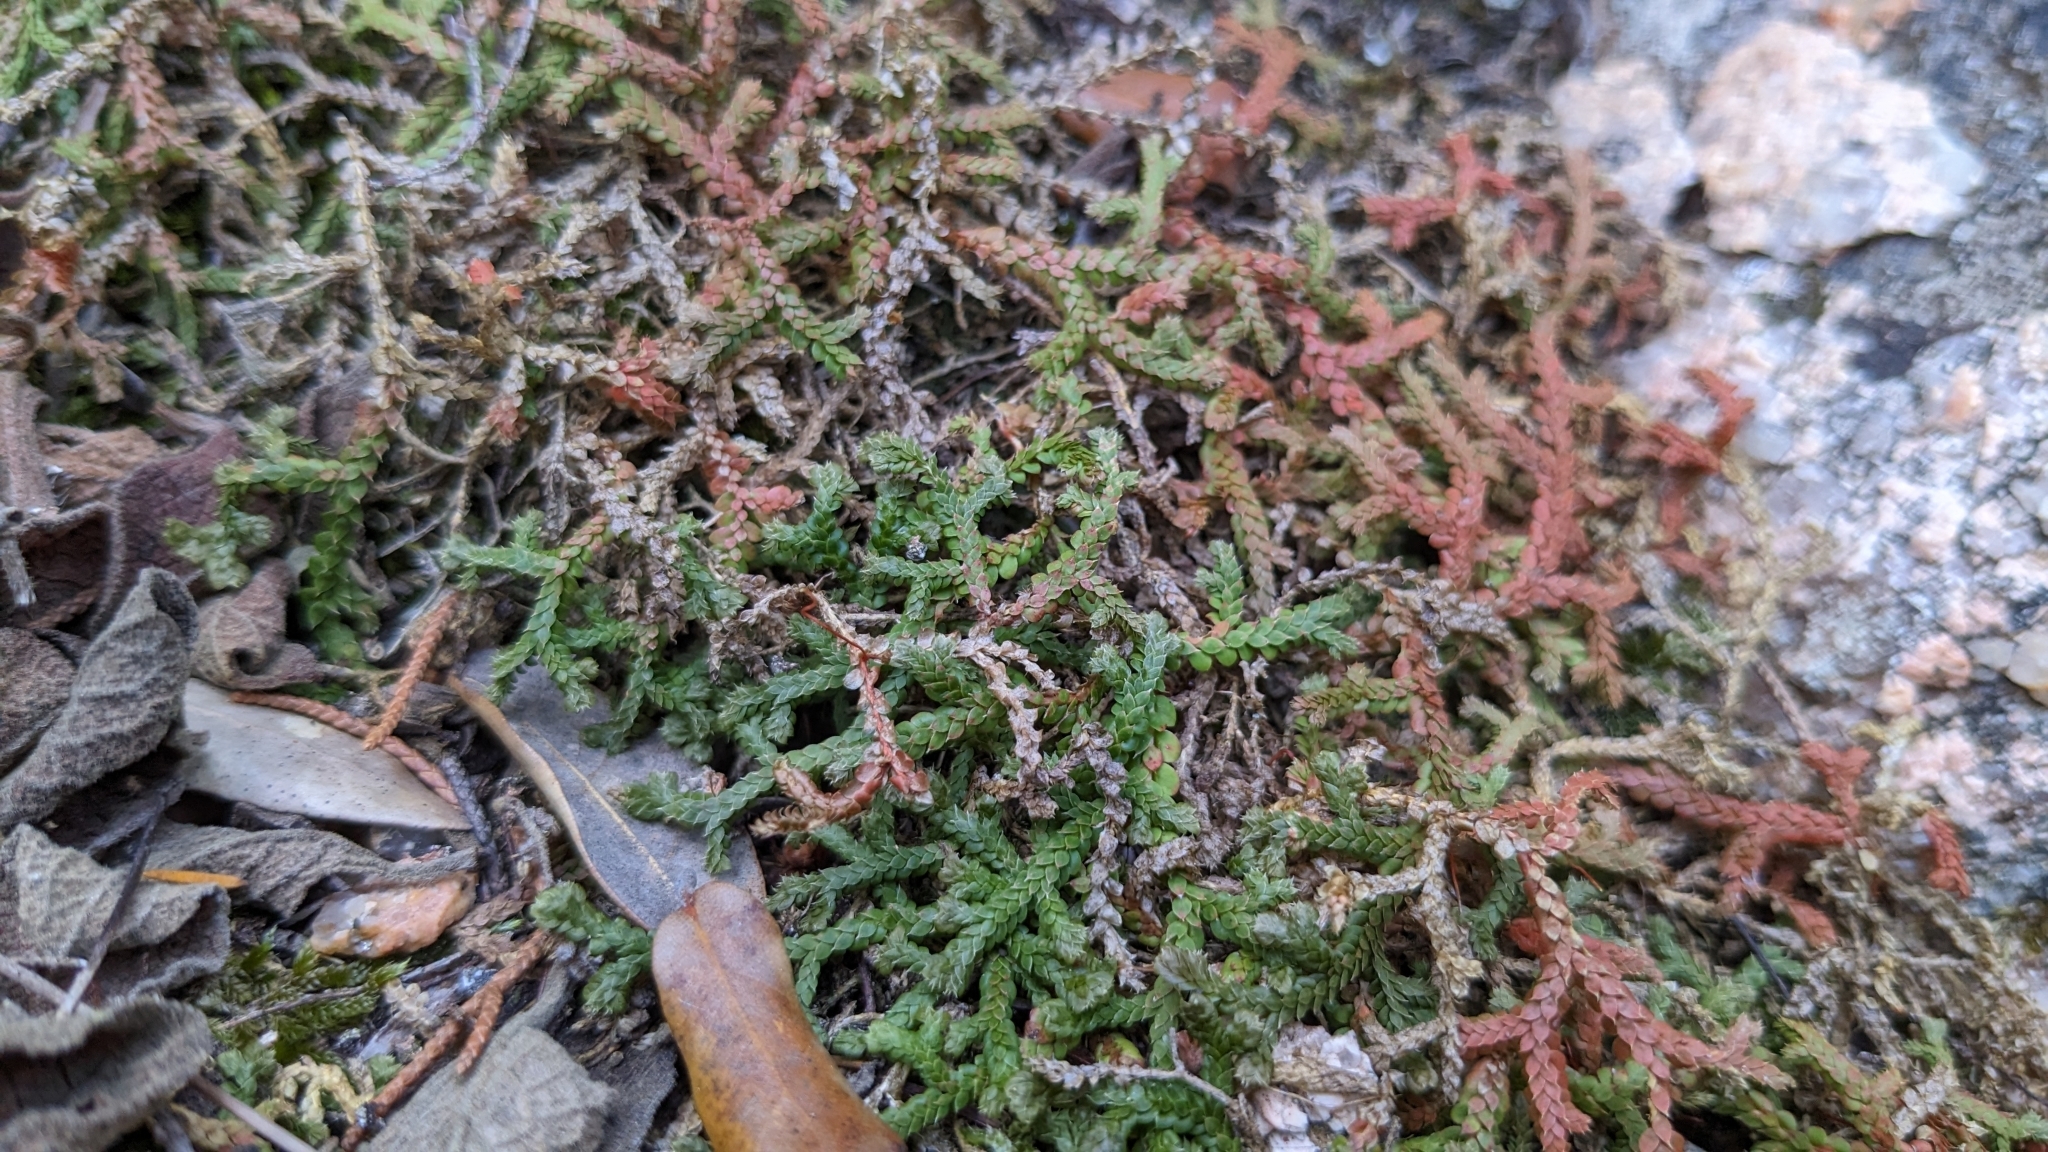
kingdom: Plantae
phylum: Tracheophyta
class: Lycopodiopsida
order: Selaginellales
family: Selaginellaceae
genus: Selaginella
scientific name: Selaginella denticulata
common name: Toothed-leaved clubmoss
